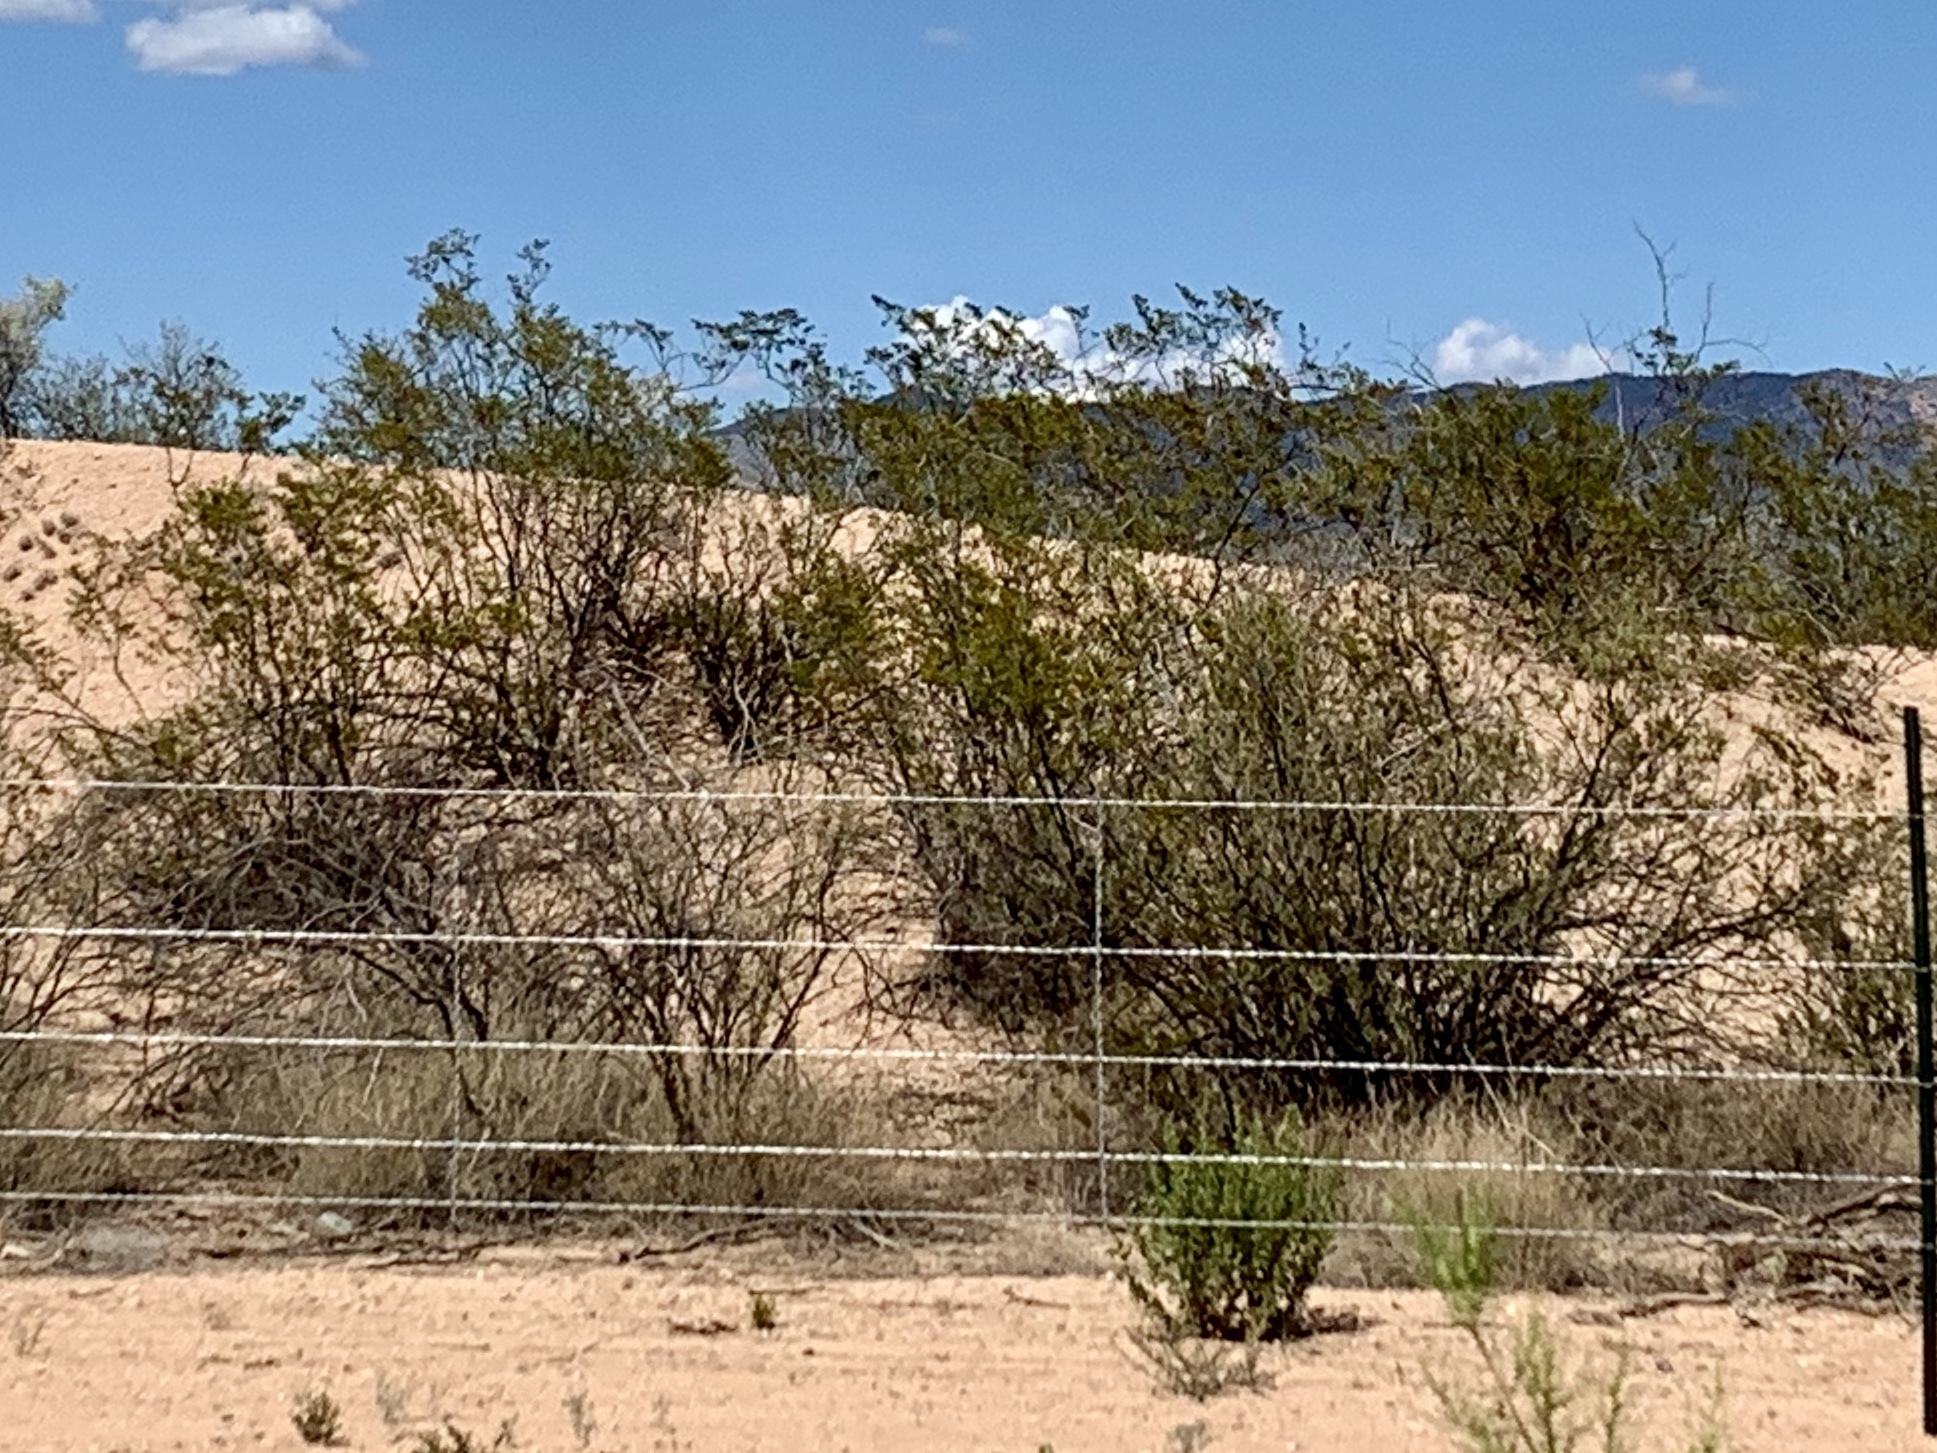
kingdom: Plantae
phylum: Tracheophyta
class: Magnoliopsida
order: Zygophyllales
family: Zygophyllaceae
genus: Larrea
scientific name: Larrea tridentata
